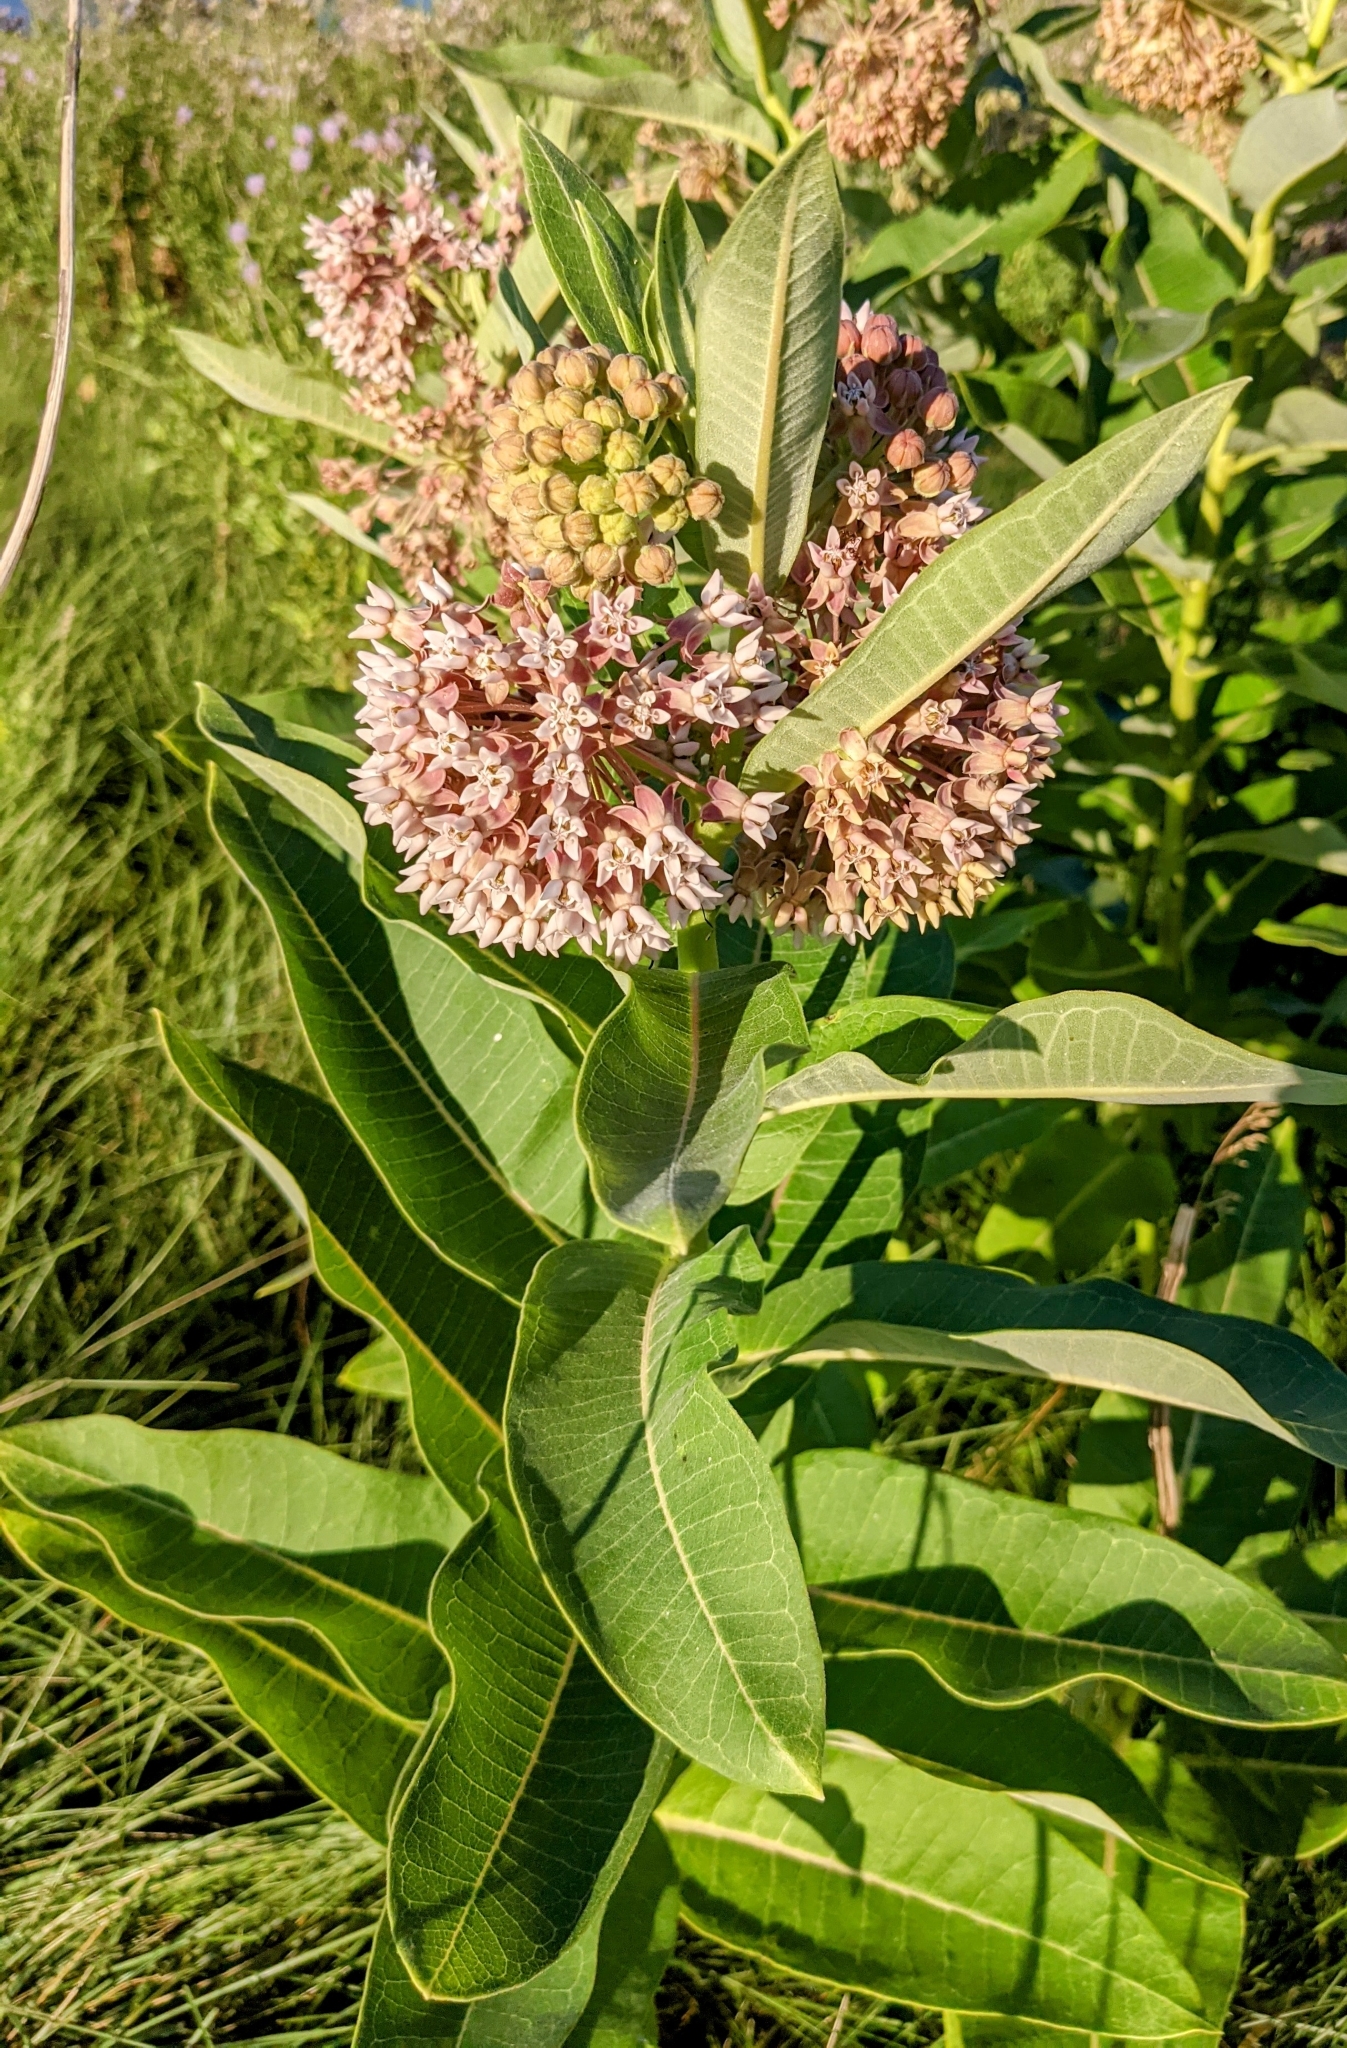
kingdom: Plantae
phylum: Tracheophyta
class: Magnoliopsida
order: Gentianales
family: Apocynaceae
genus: Asclepias
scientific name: Asclepias syriaca
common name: Common milkweed
